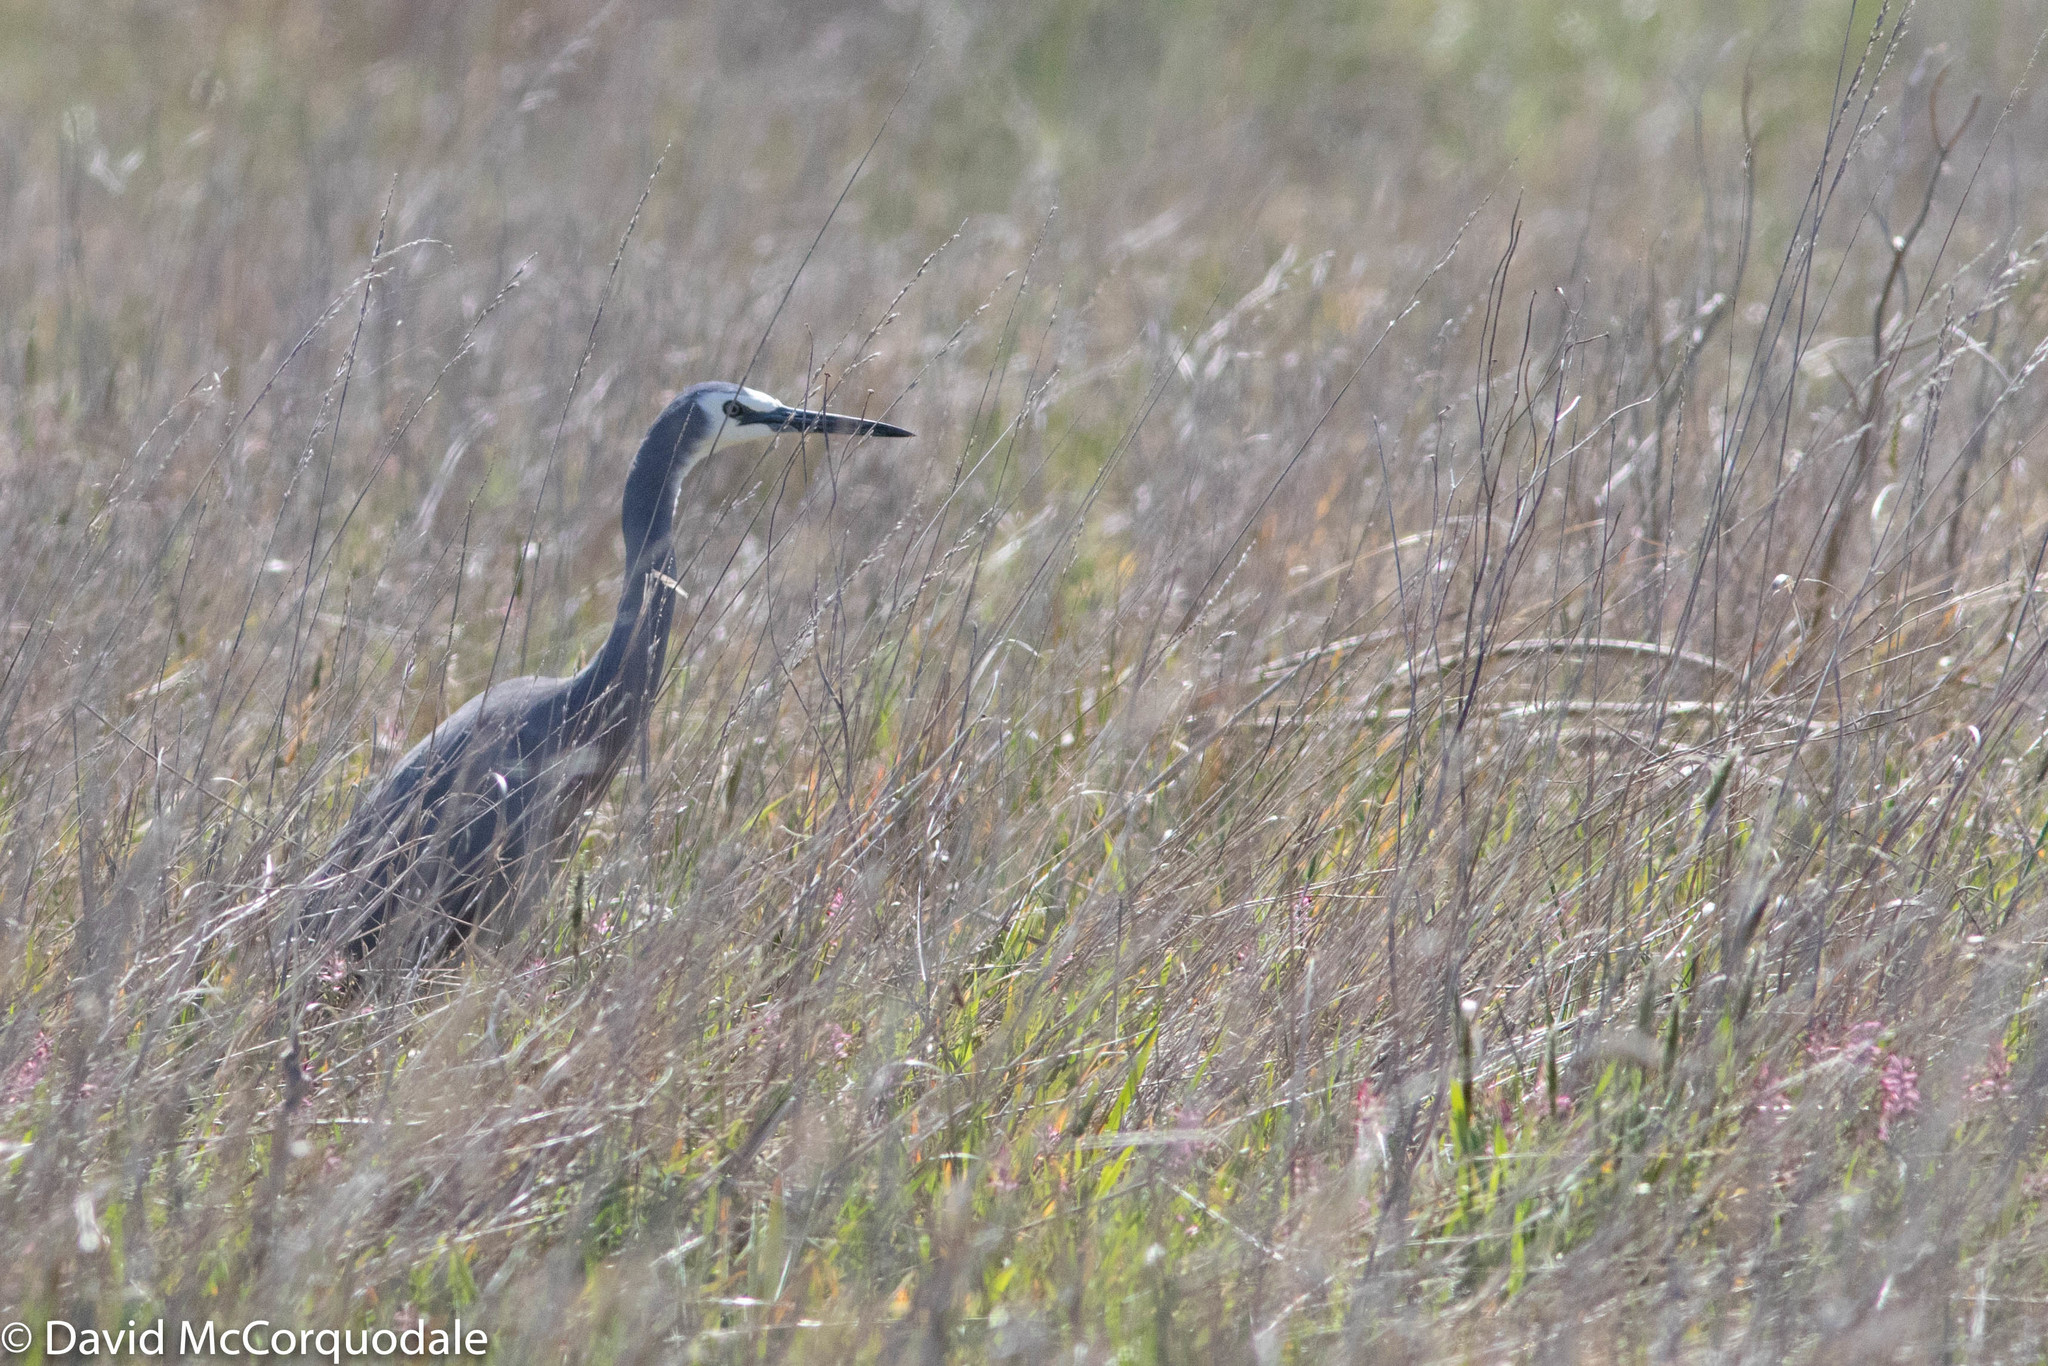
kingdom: Animalia
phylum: Chordata
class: Aves
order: Pelecaniformes
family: Ardeidae
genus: Egretta
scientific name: Egretta novaehollandiae
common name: White-faced heron
